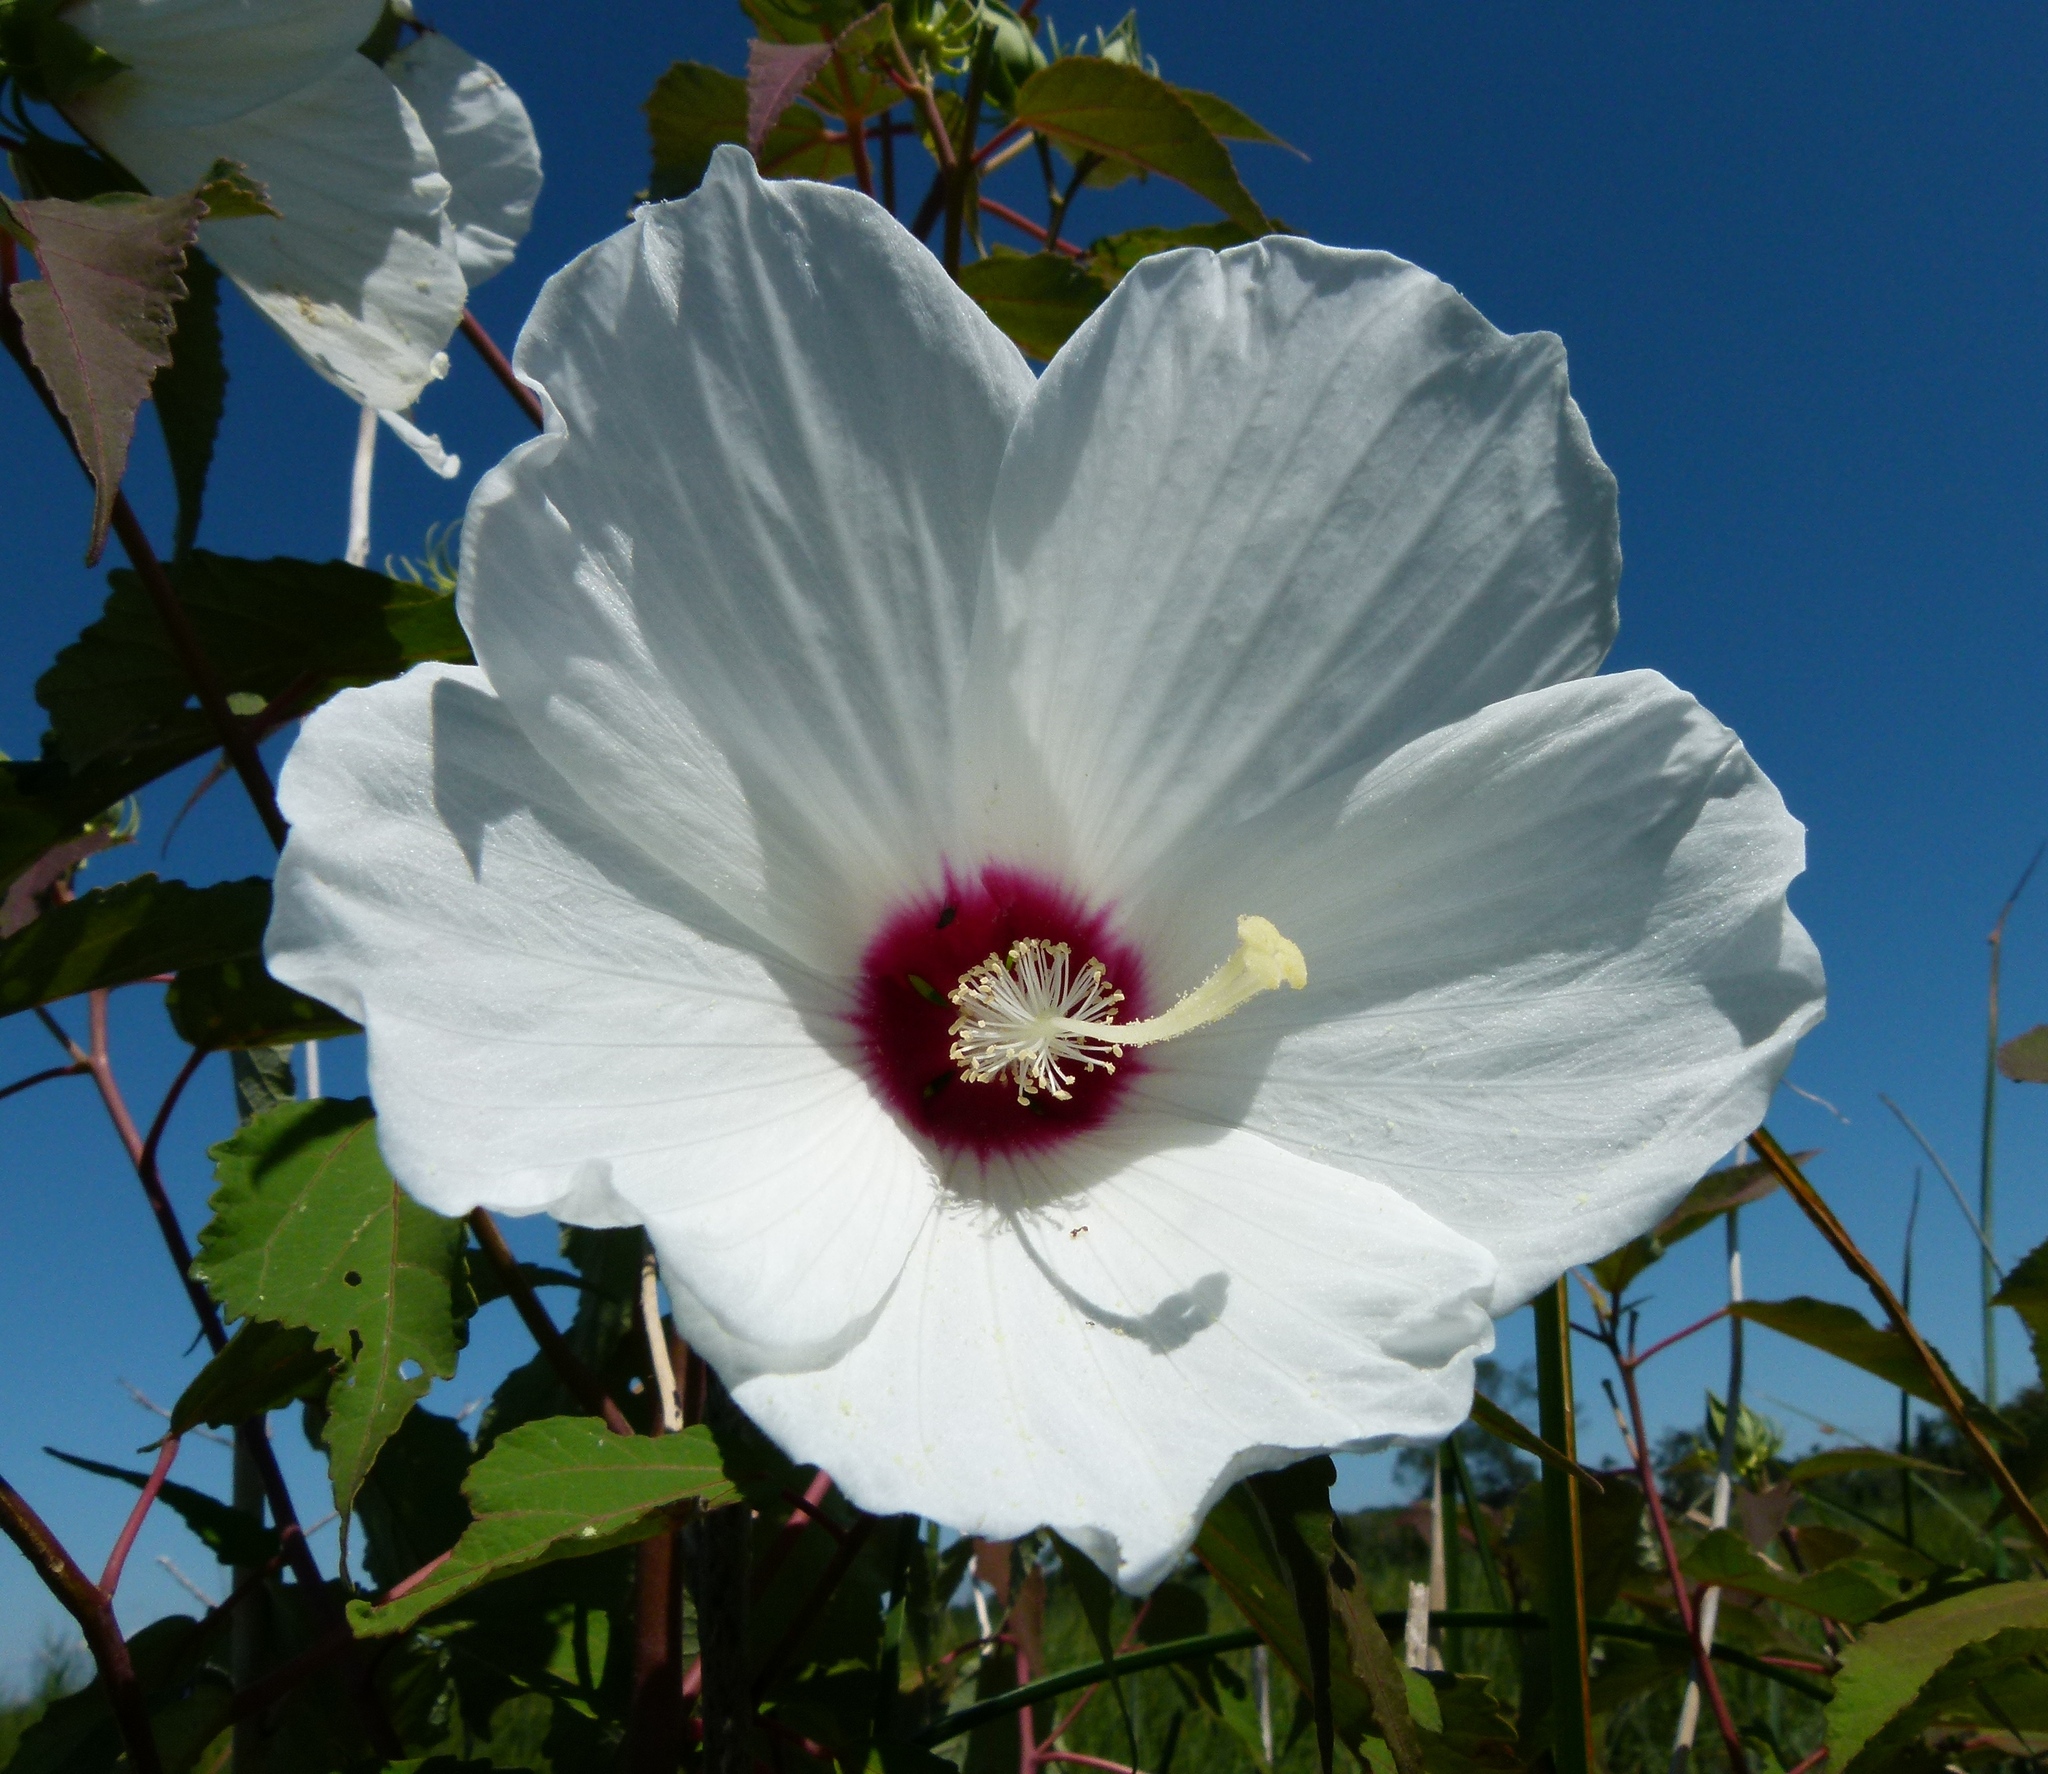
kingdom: Plantae
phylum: Tracheophyta
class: Magnoliopsida
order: Malvales
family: Malvaceae
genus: Hibiscus
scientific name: Hibiscus moscheutos
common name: Common rose-mallow
